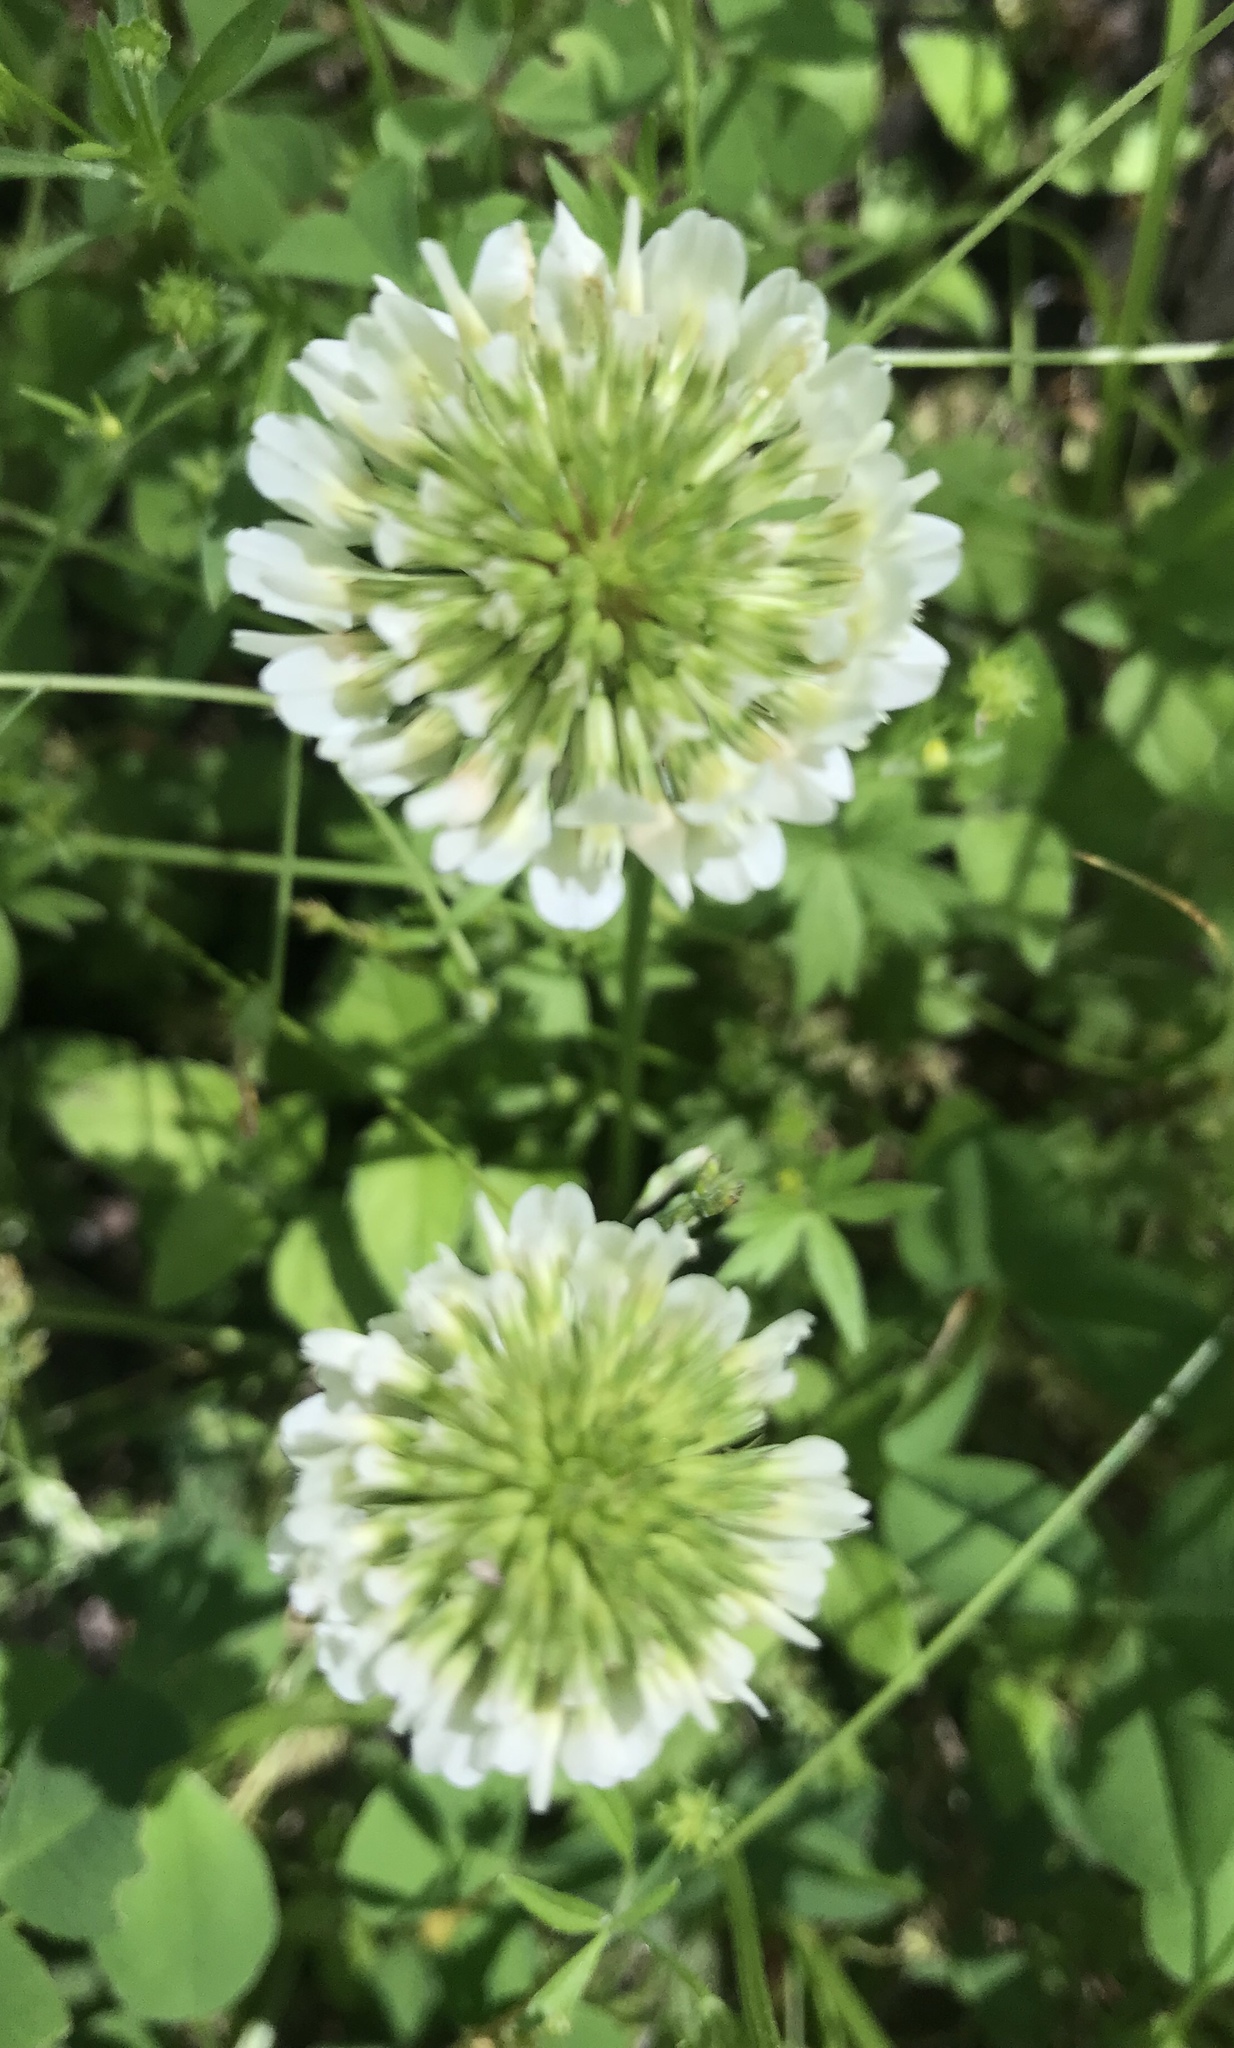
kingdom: Plantae
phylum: Tracheophyta
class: Magnoliopsida
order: Fabales
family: Fabaceae
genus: Trifolium
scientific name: Trifolium repens
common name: White clover
